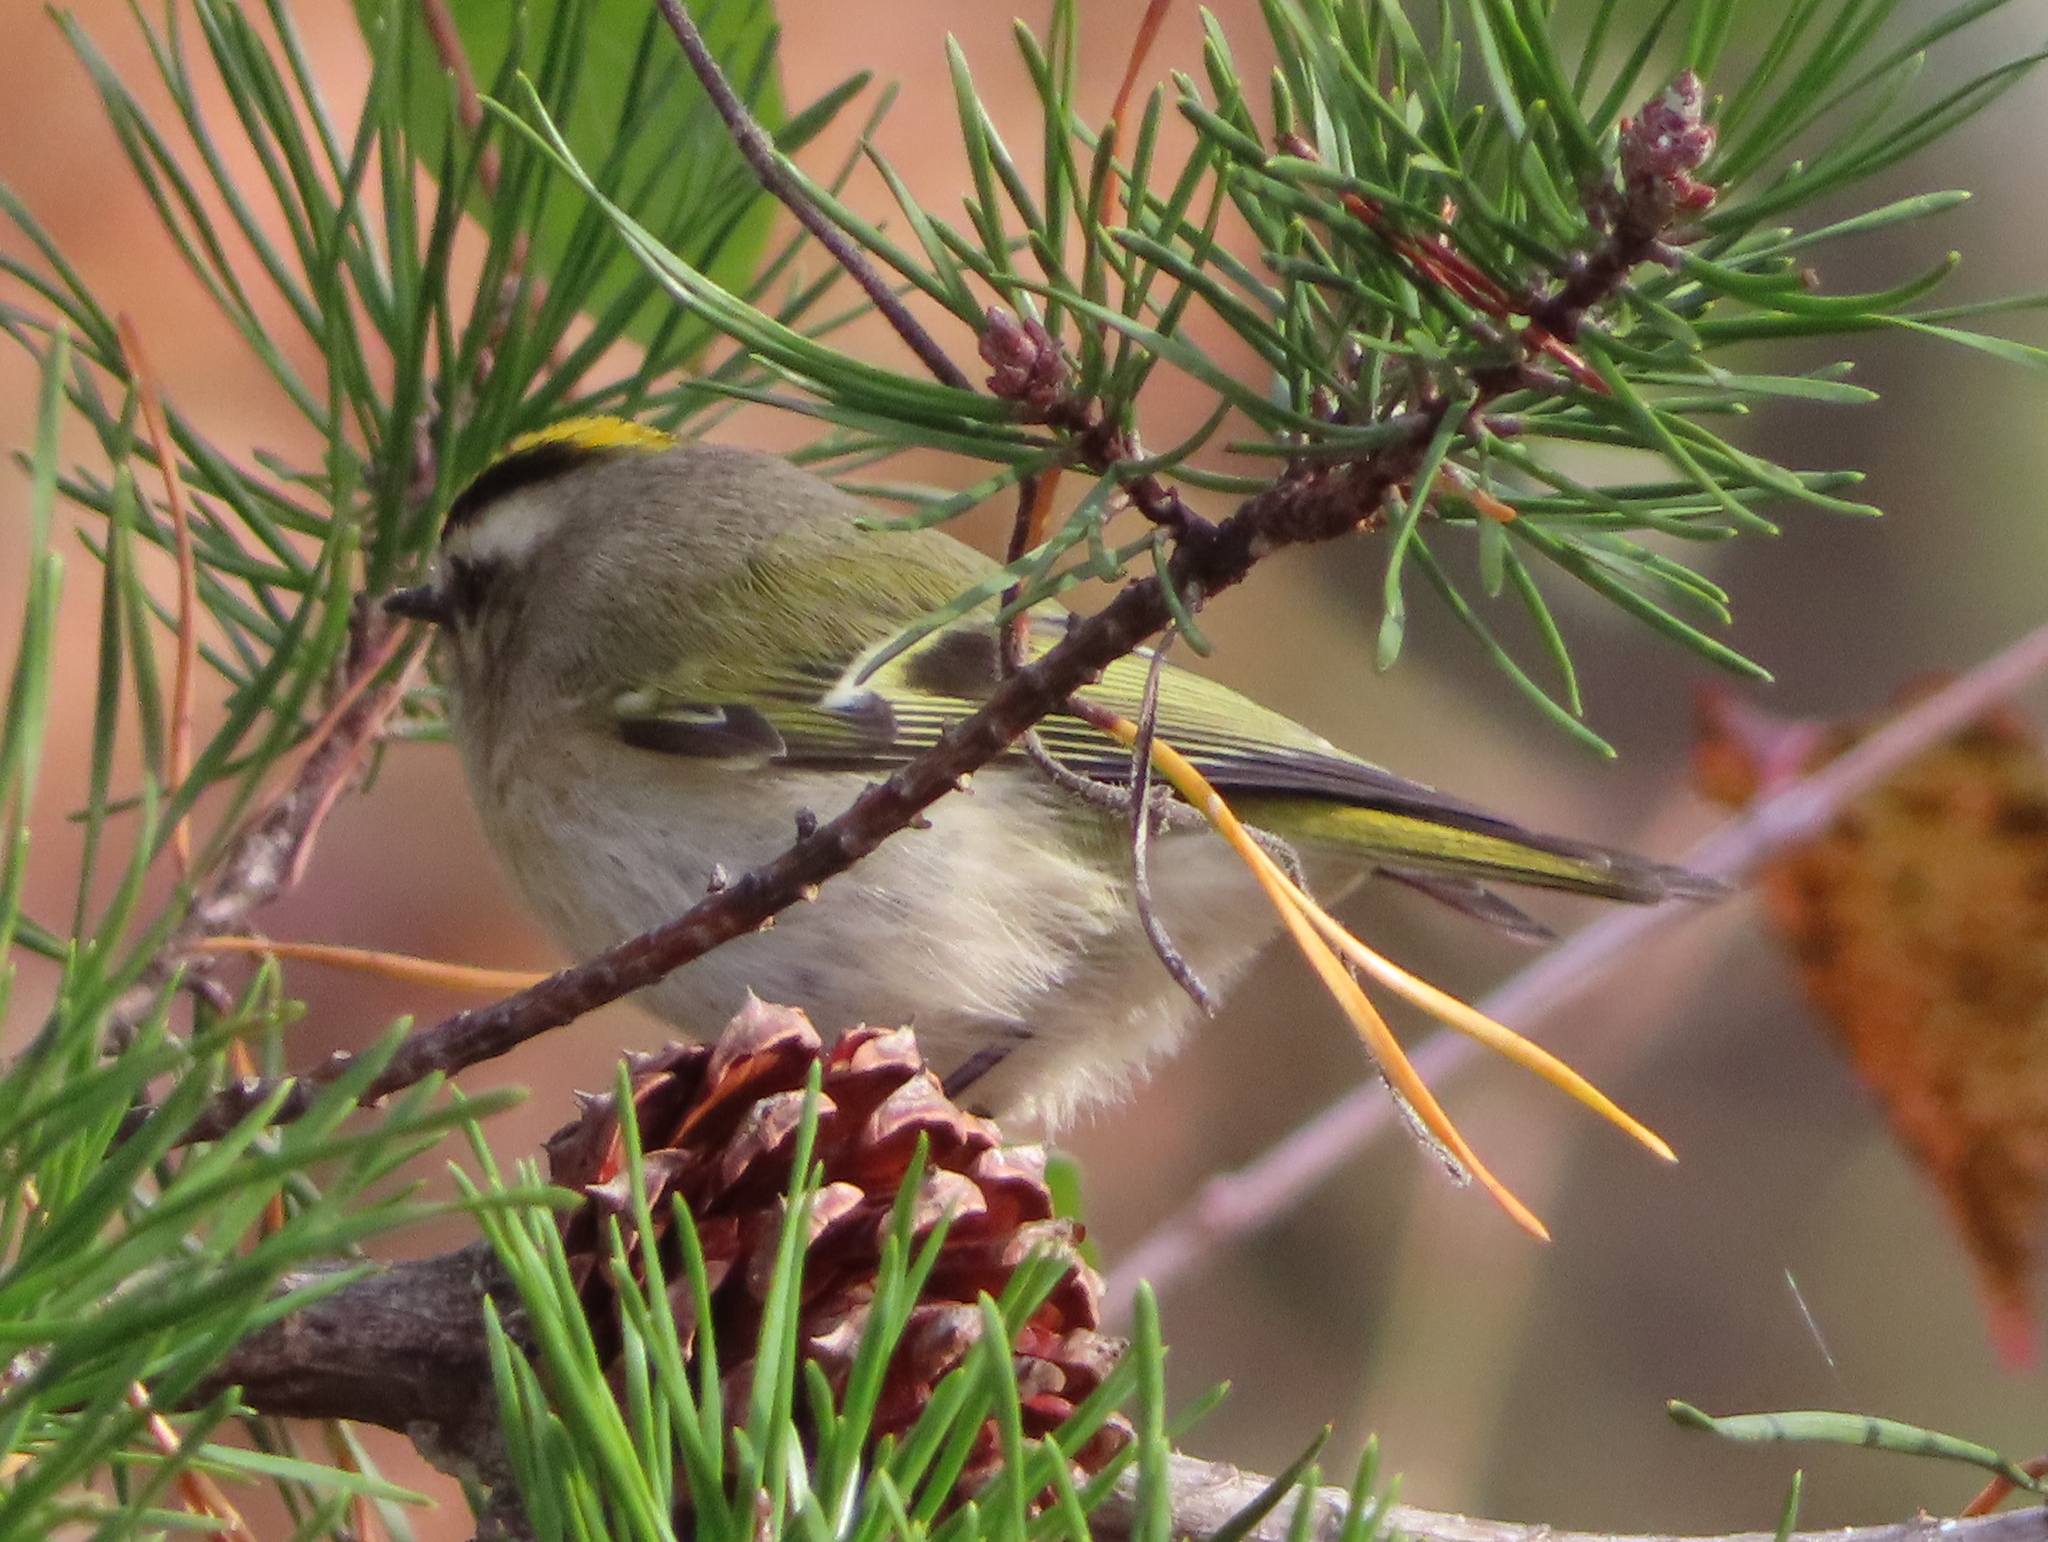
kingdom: Animalia
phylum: Chordata
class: Aves
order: Passeriformes
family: Regulidae
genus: Regulus
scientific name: Regulus satrapa
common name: Golden-crowned kinglet
